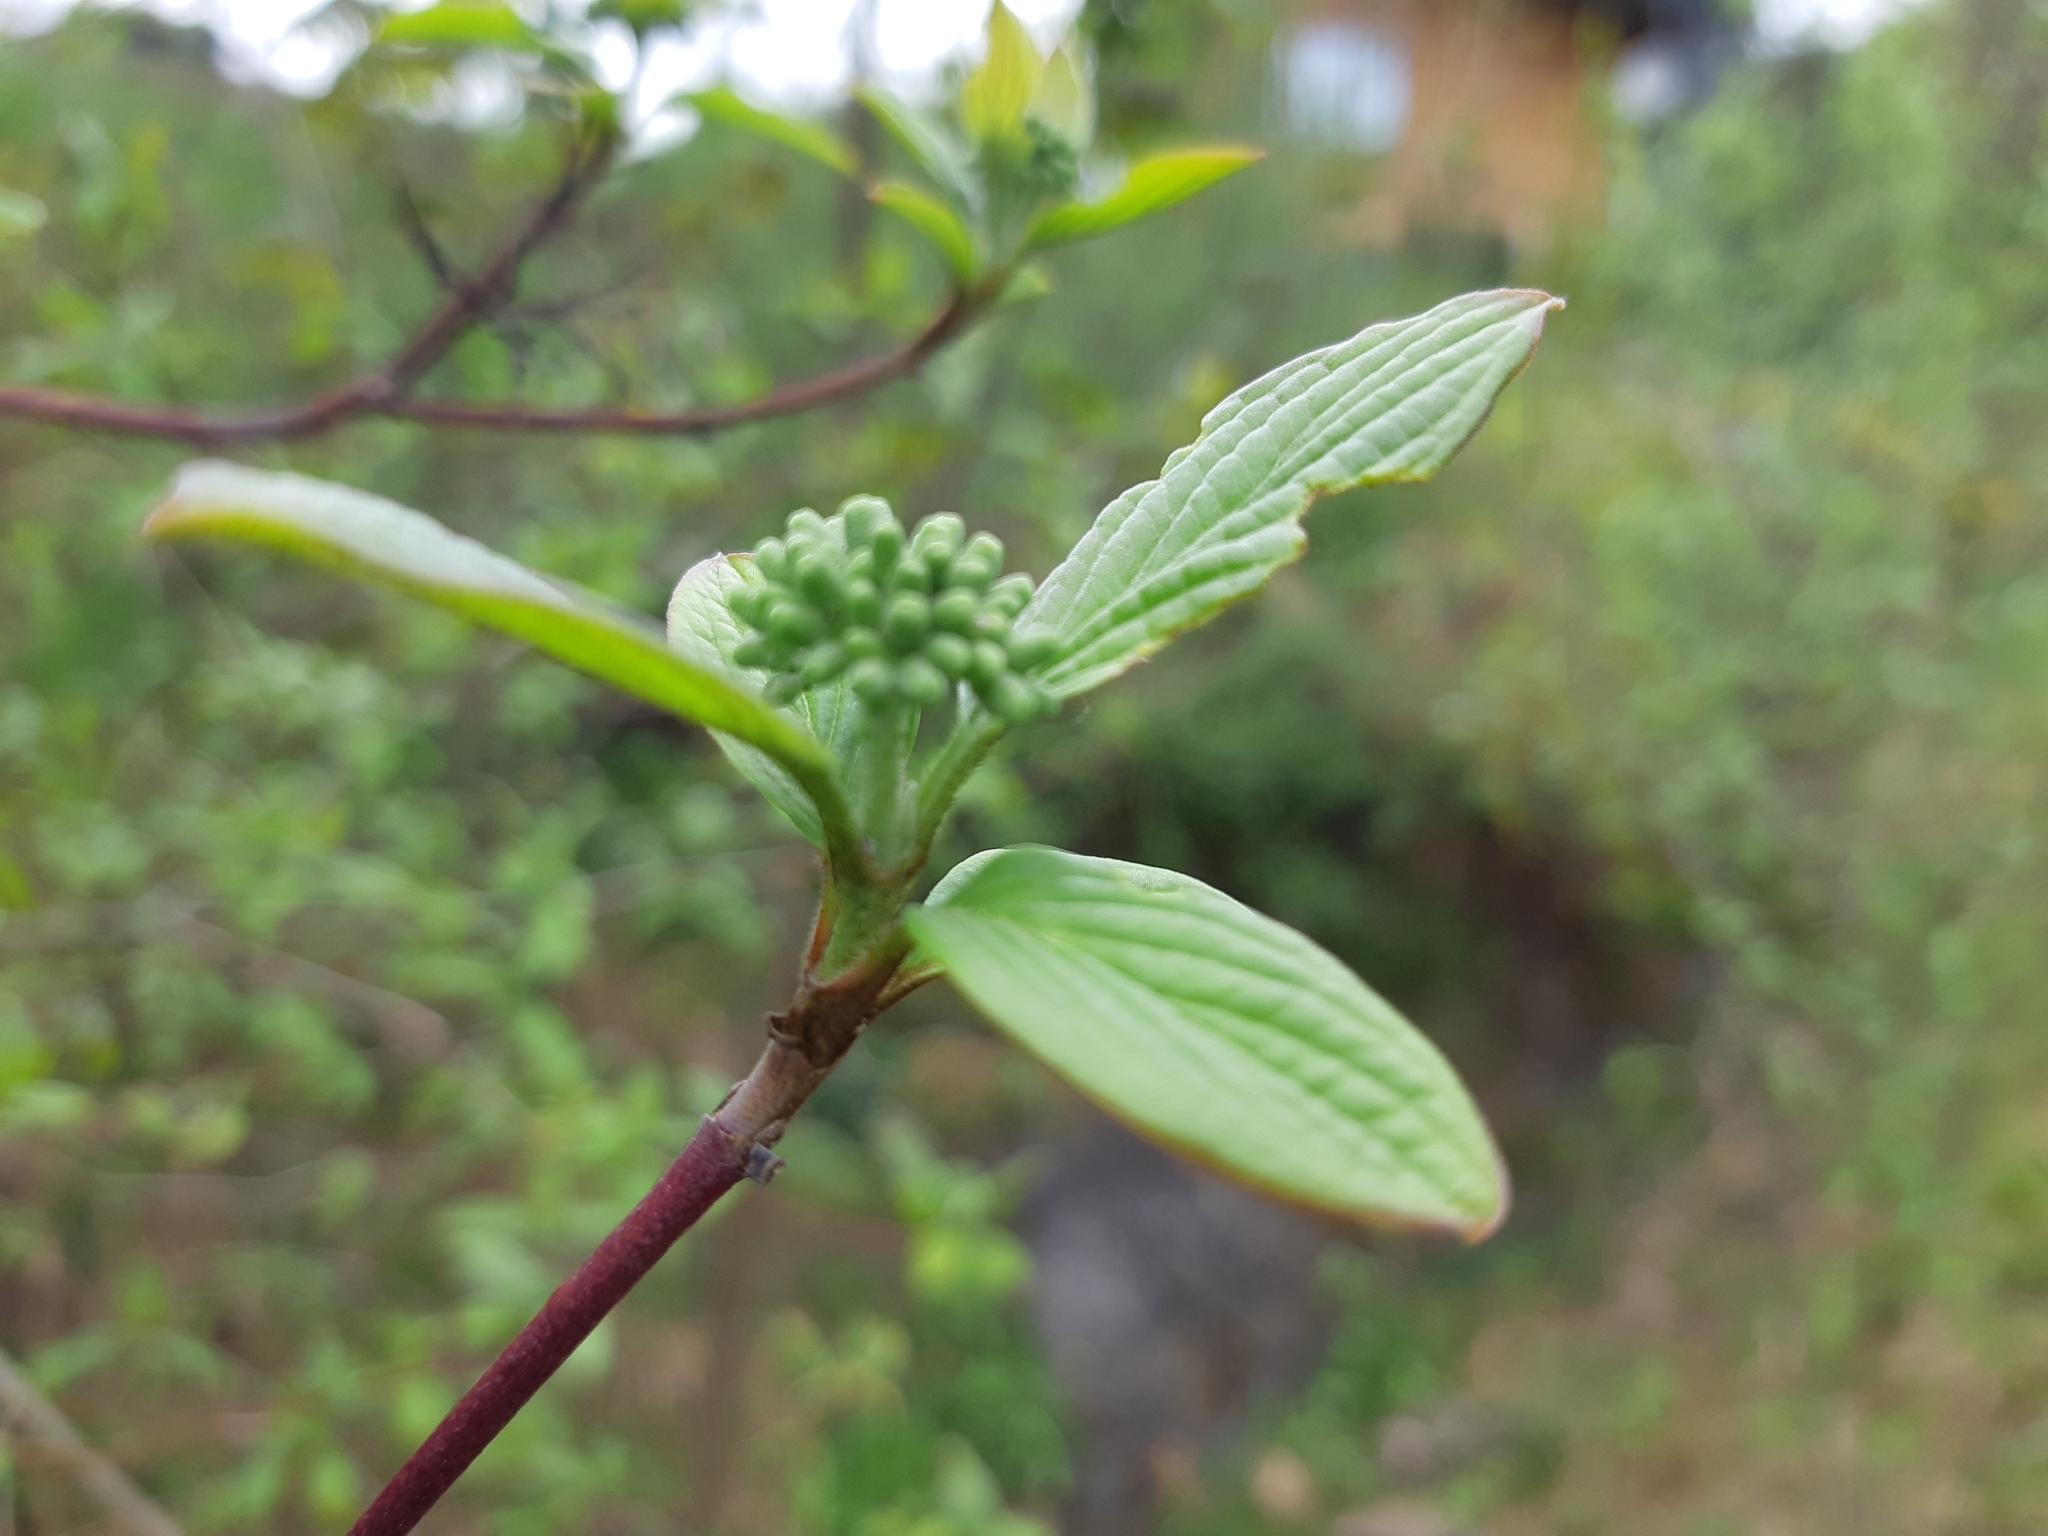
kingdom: Plantae
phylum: Tracheophyta
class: Magnoliopsida
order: Cornales
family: Cornaceae
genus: Cornus
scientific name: Cornus sanguinea
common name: Dogwood
